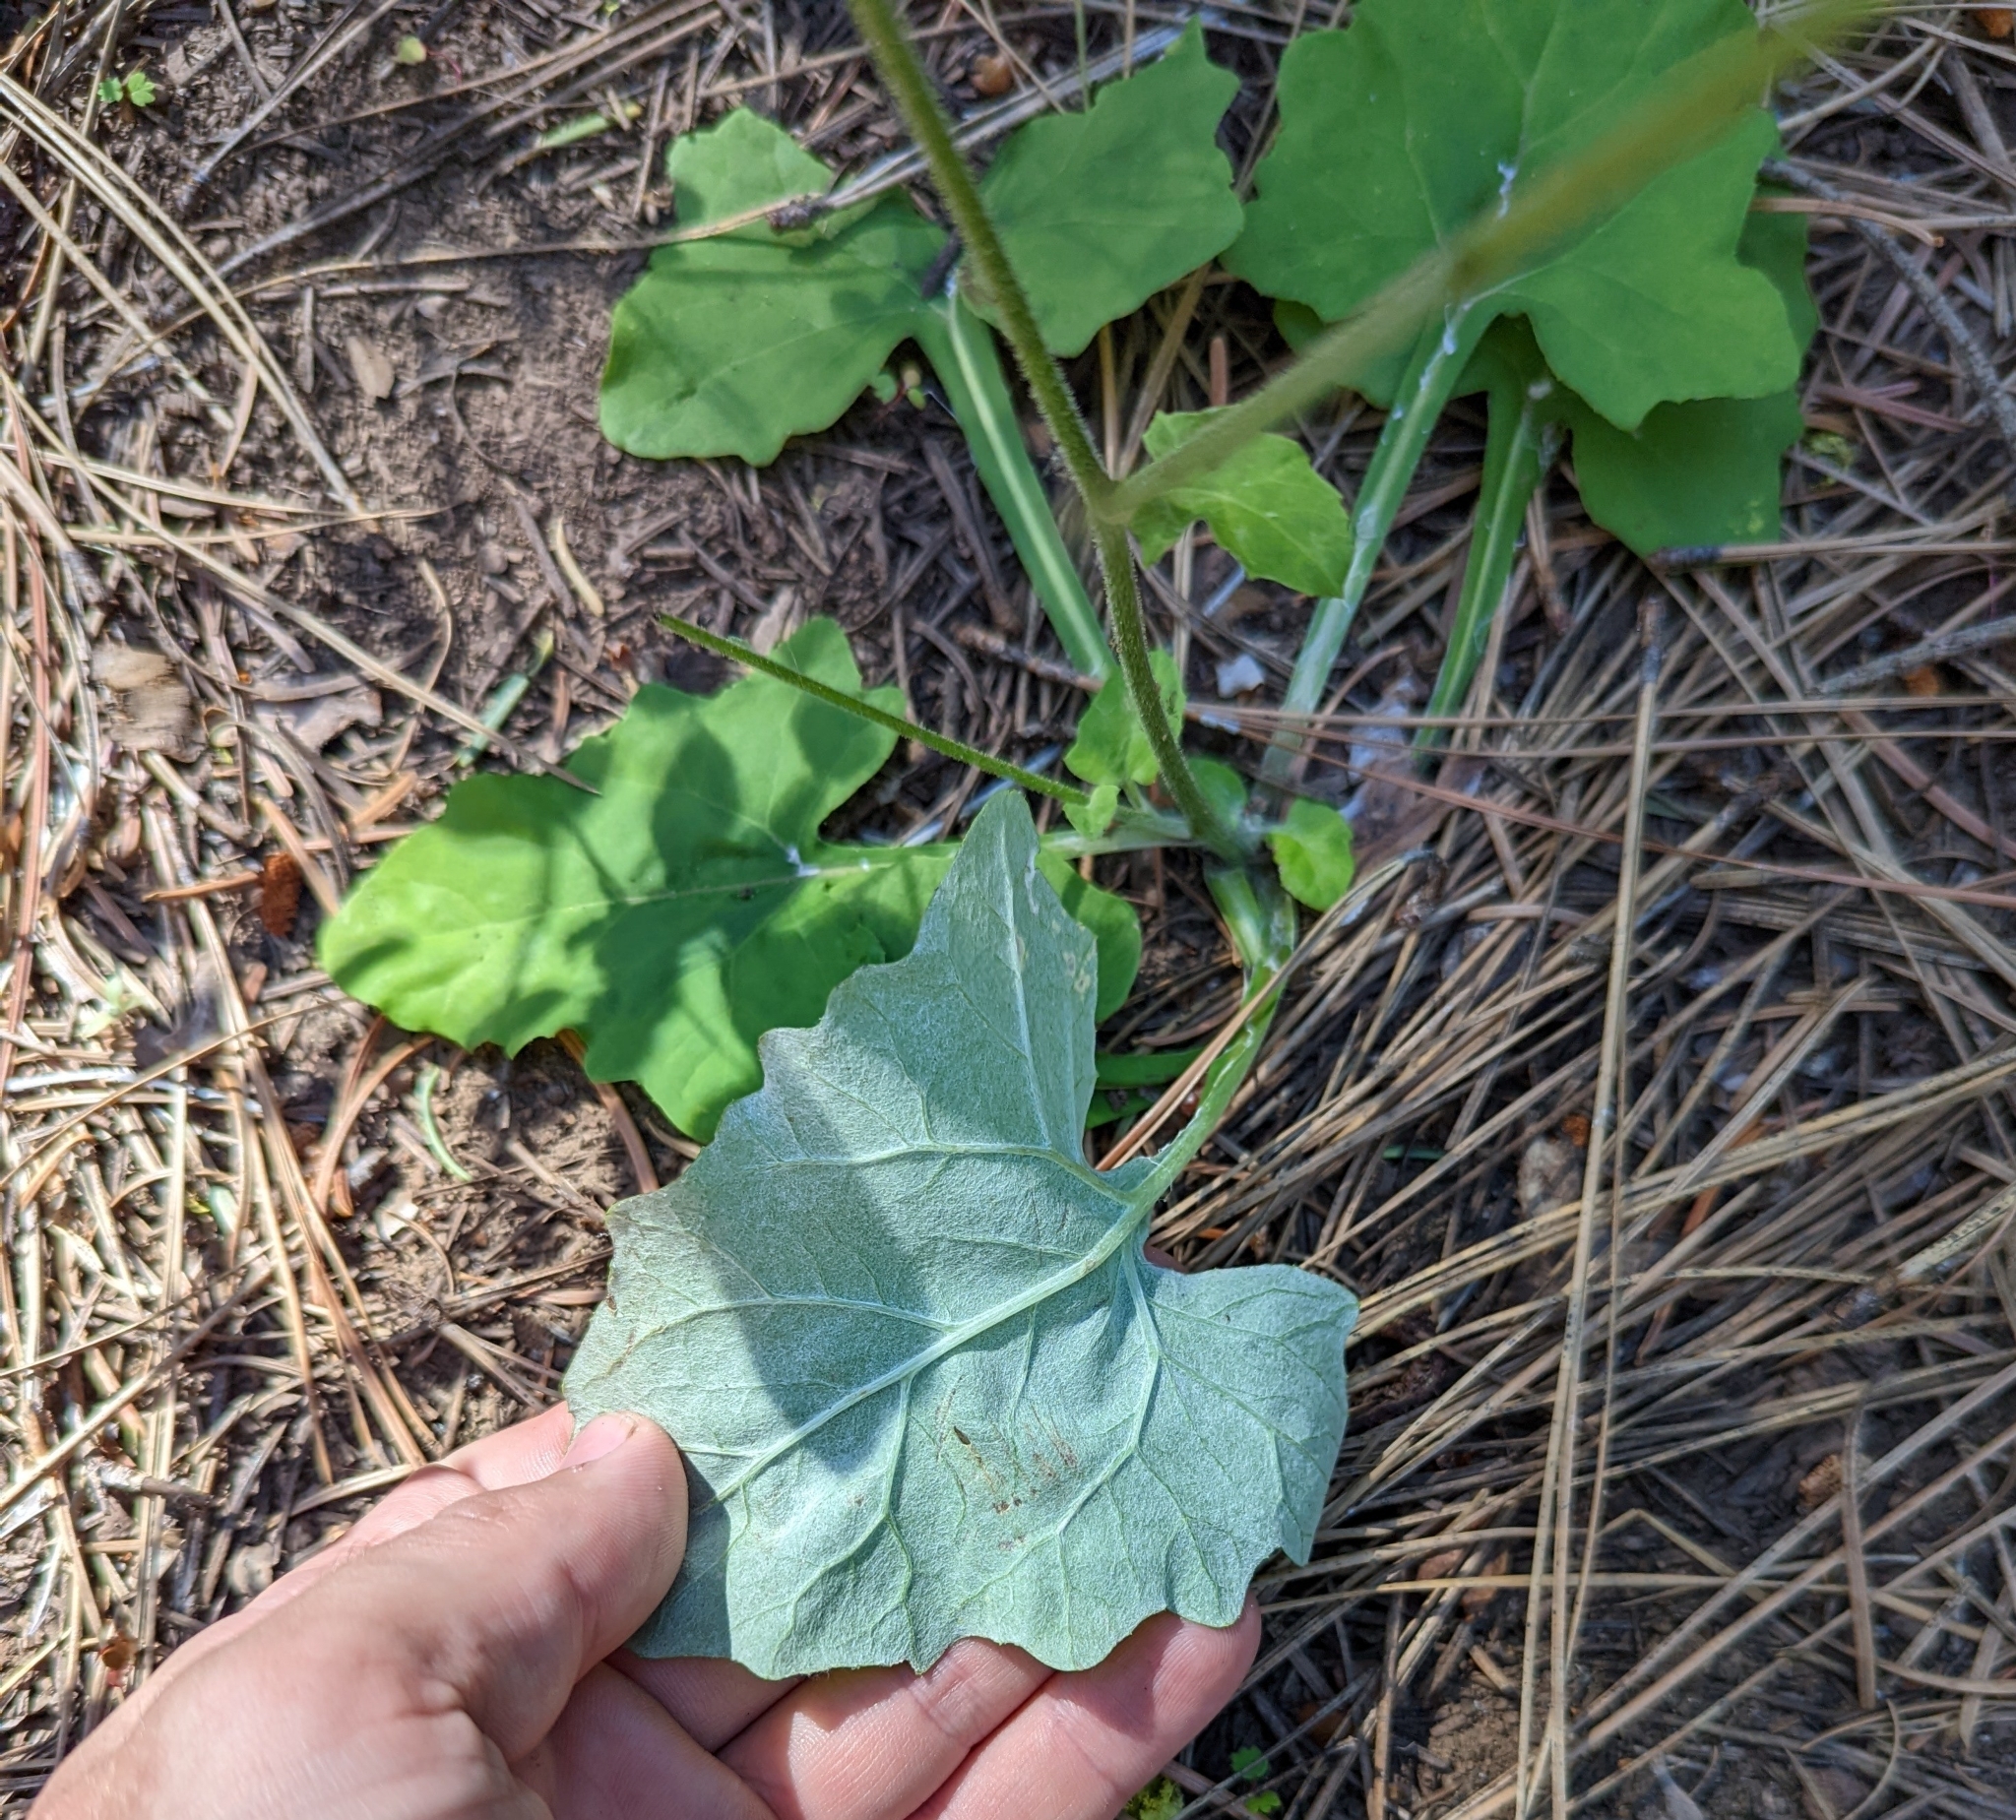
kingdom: Plantae
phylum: Tracheophyta
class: Magnoliopsida
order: Asterales
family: Asteraceae
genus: Adenocaulon
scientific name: Adenocaulon bicolor
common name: Trailplant
